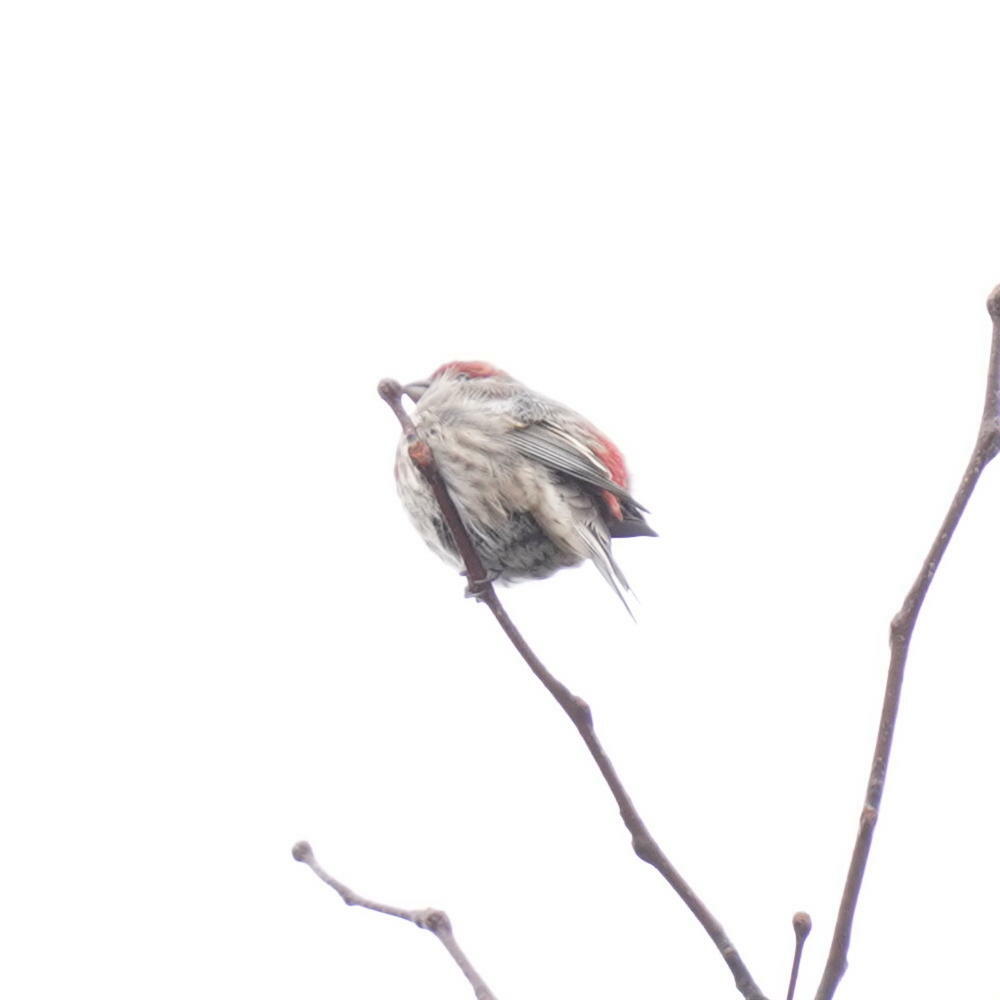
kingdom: Animalia
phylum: Chordata
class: Aves
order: Passeriformes
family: Fringillidae
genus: Haemorhous
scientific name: Haemorhous mexicanus
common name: House finch
